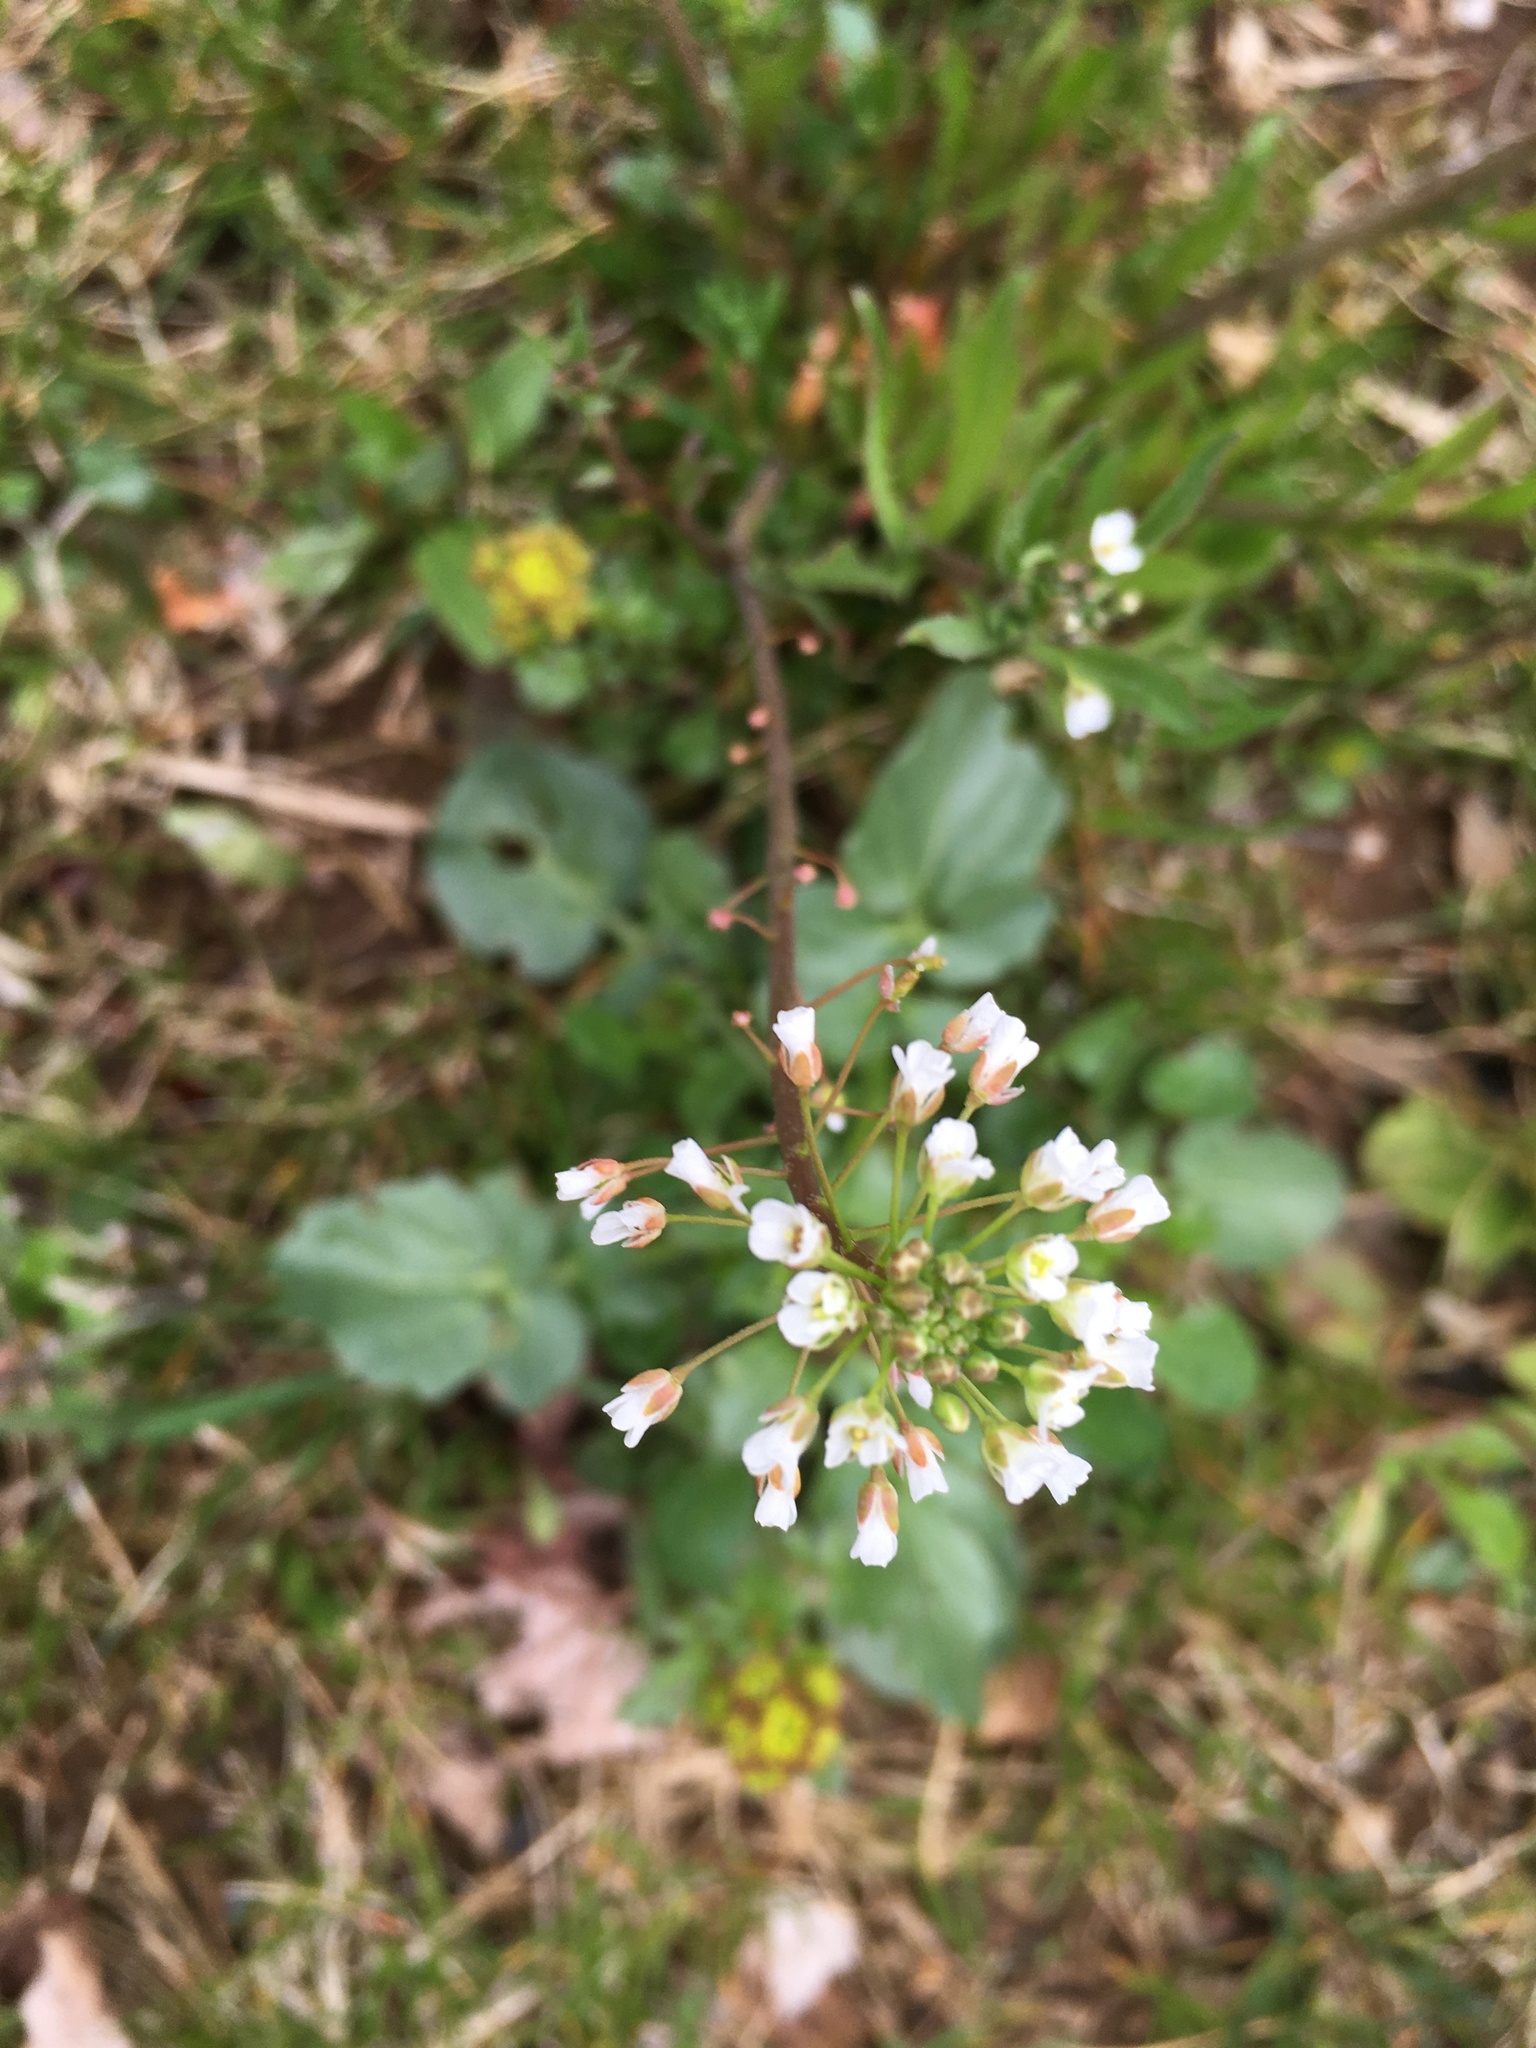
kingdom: Plantae
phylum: Tracheophyta
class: Magnoliopsida
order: Brassicales
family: Brassicaceae
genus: Capsella
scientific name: Capsella bursa-pastoris
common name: Shepherd's purse
